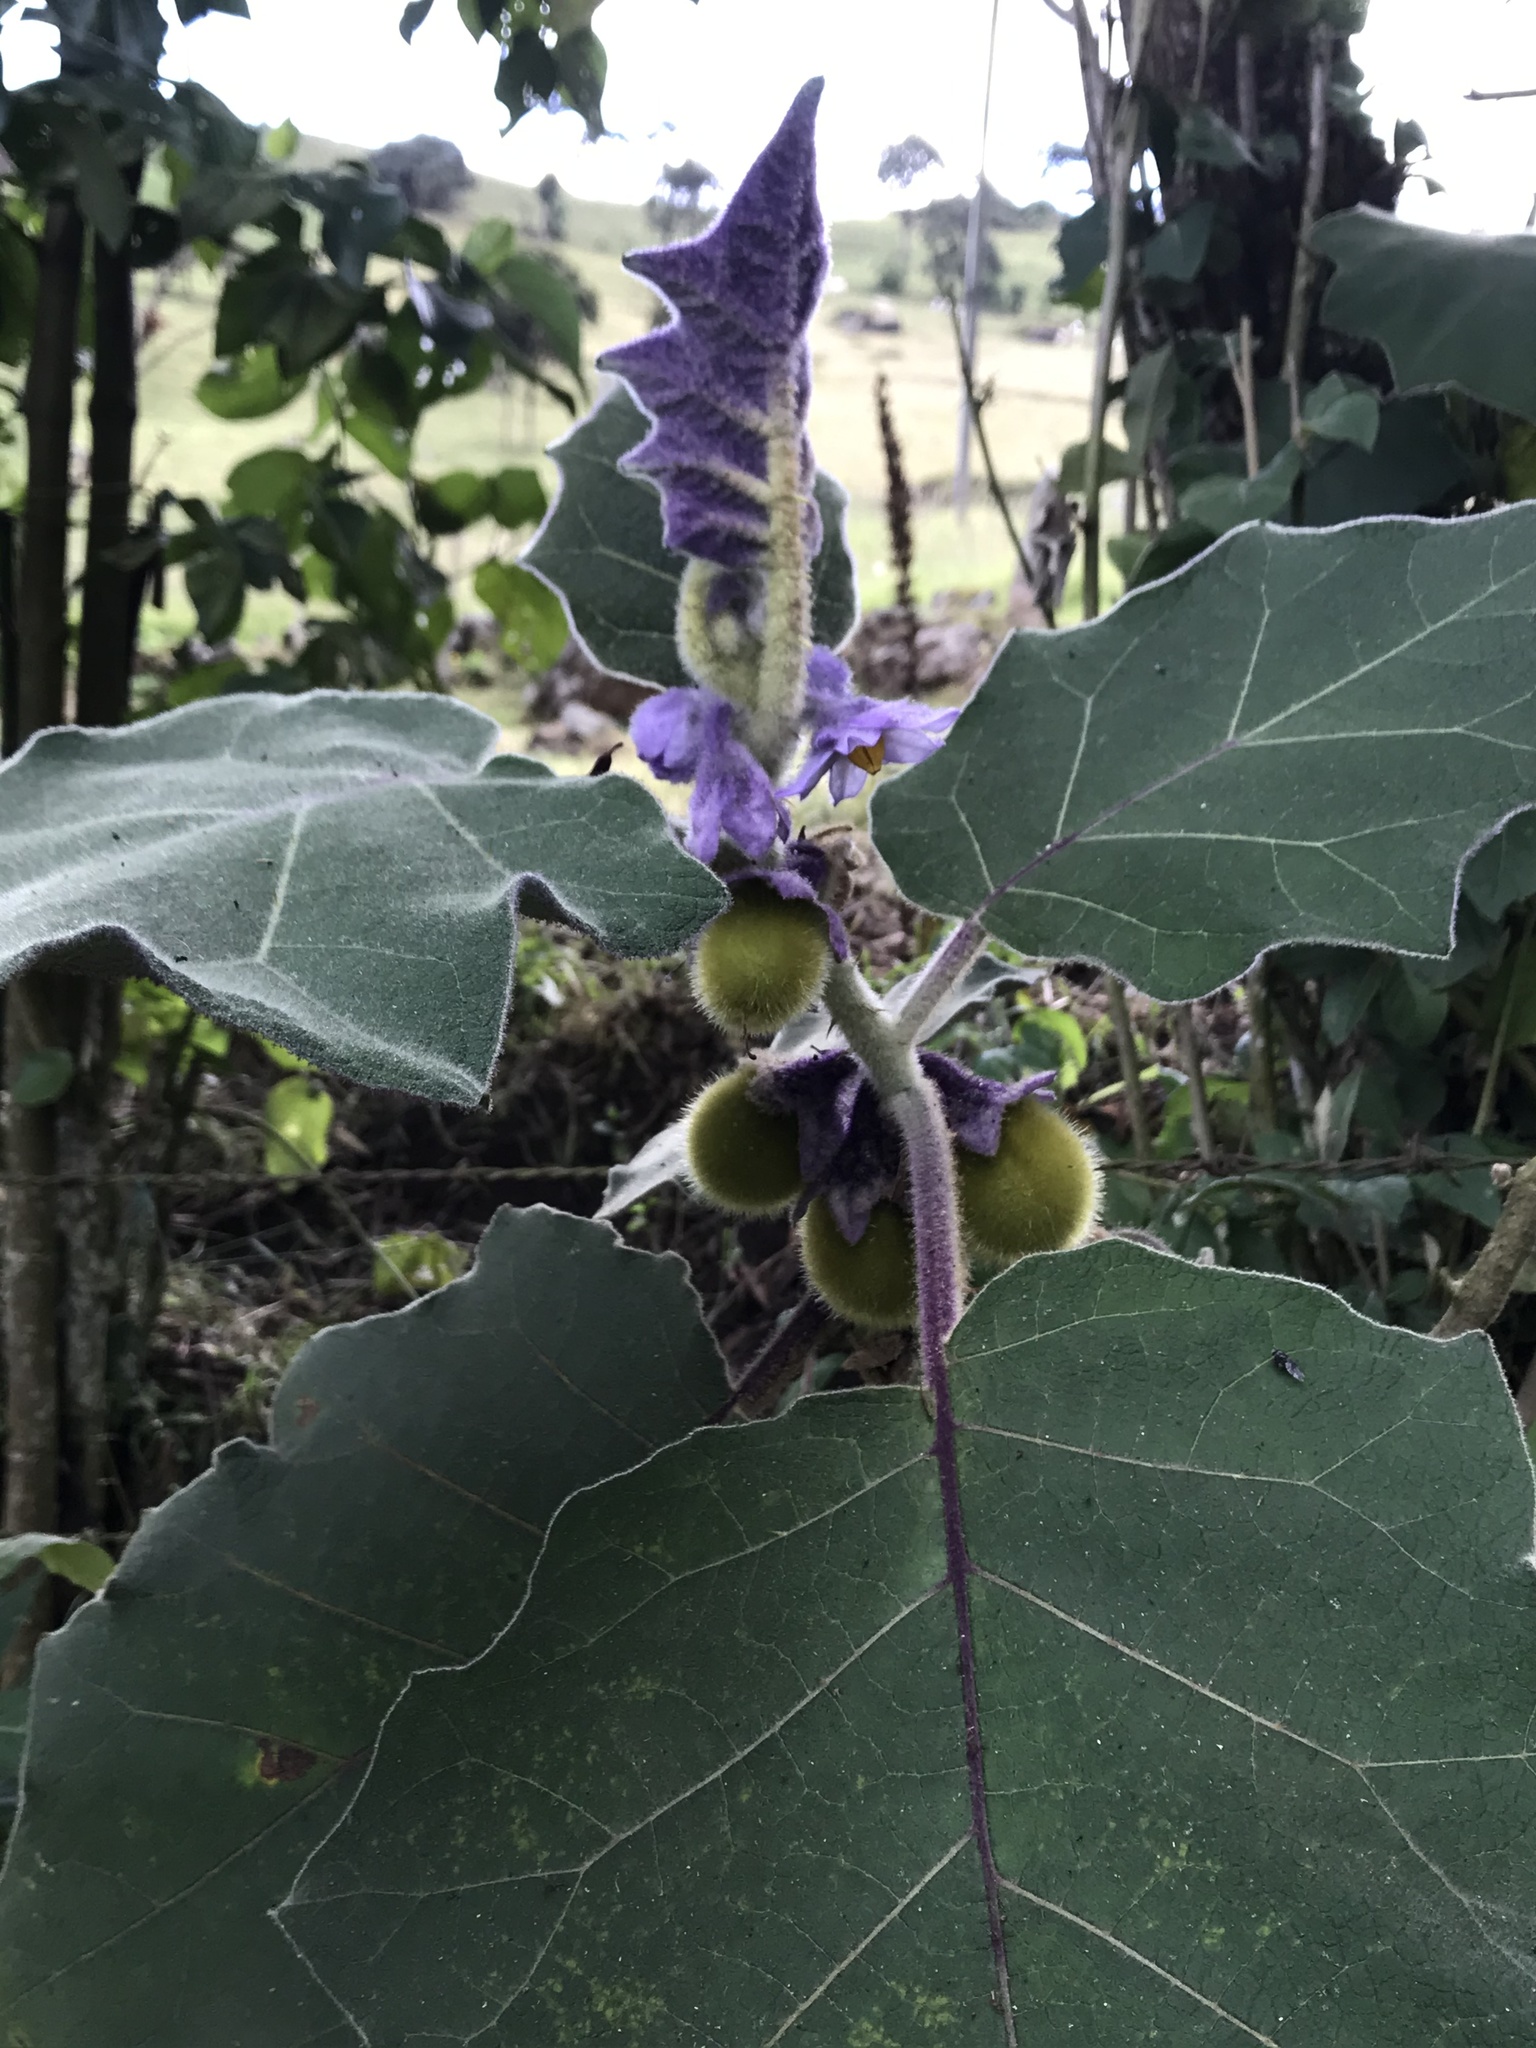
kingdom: Plantae
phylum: Tracheophyta
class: Magnoliopsida
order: Solanales
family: Solanaceae
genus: Solanum
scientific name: Solanum vestissimum
